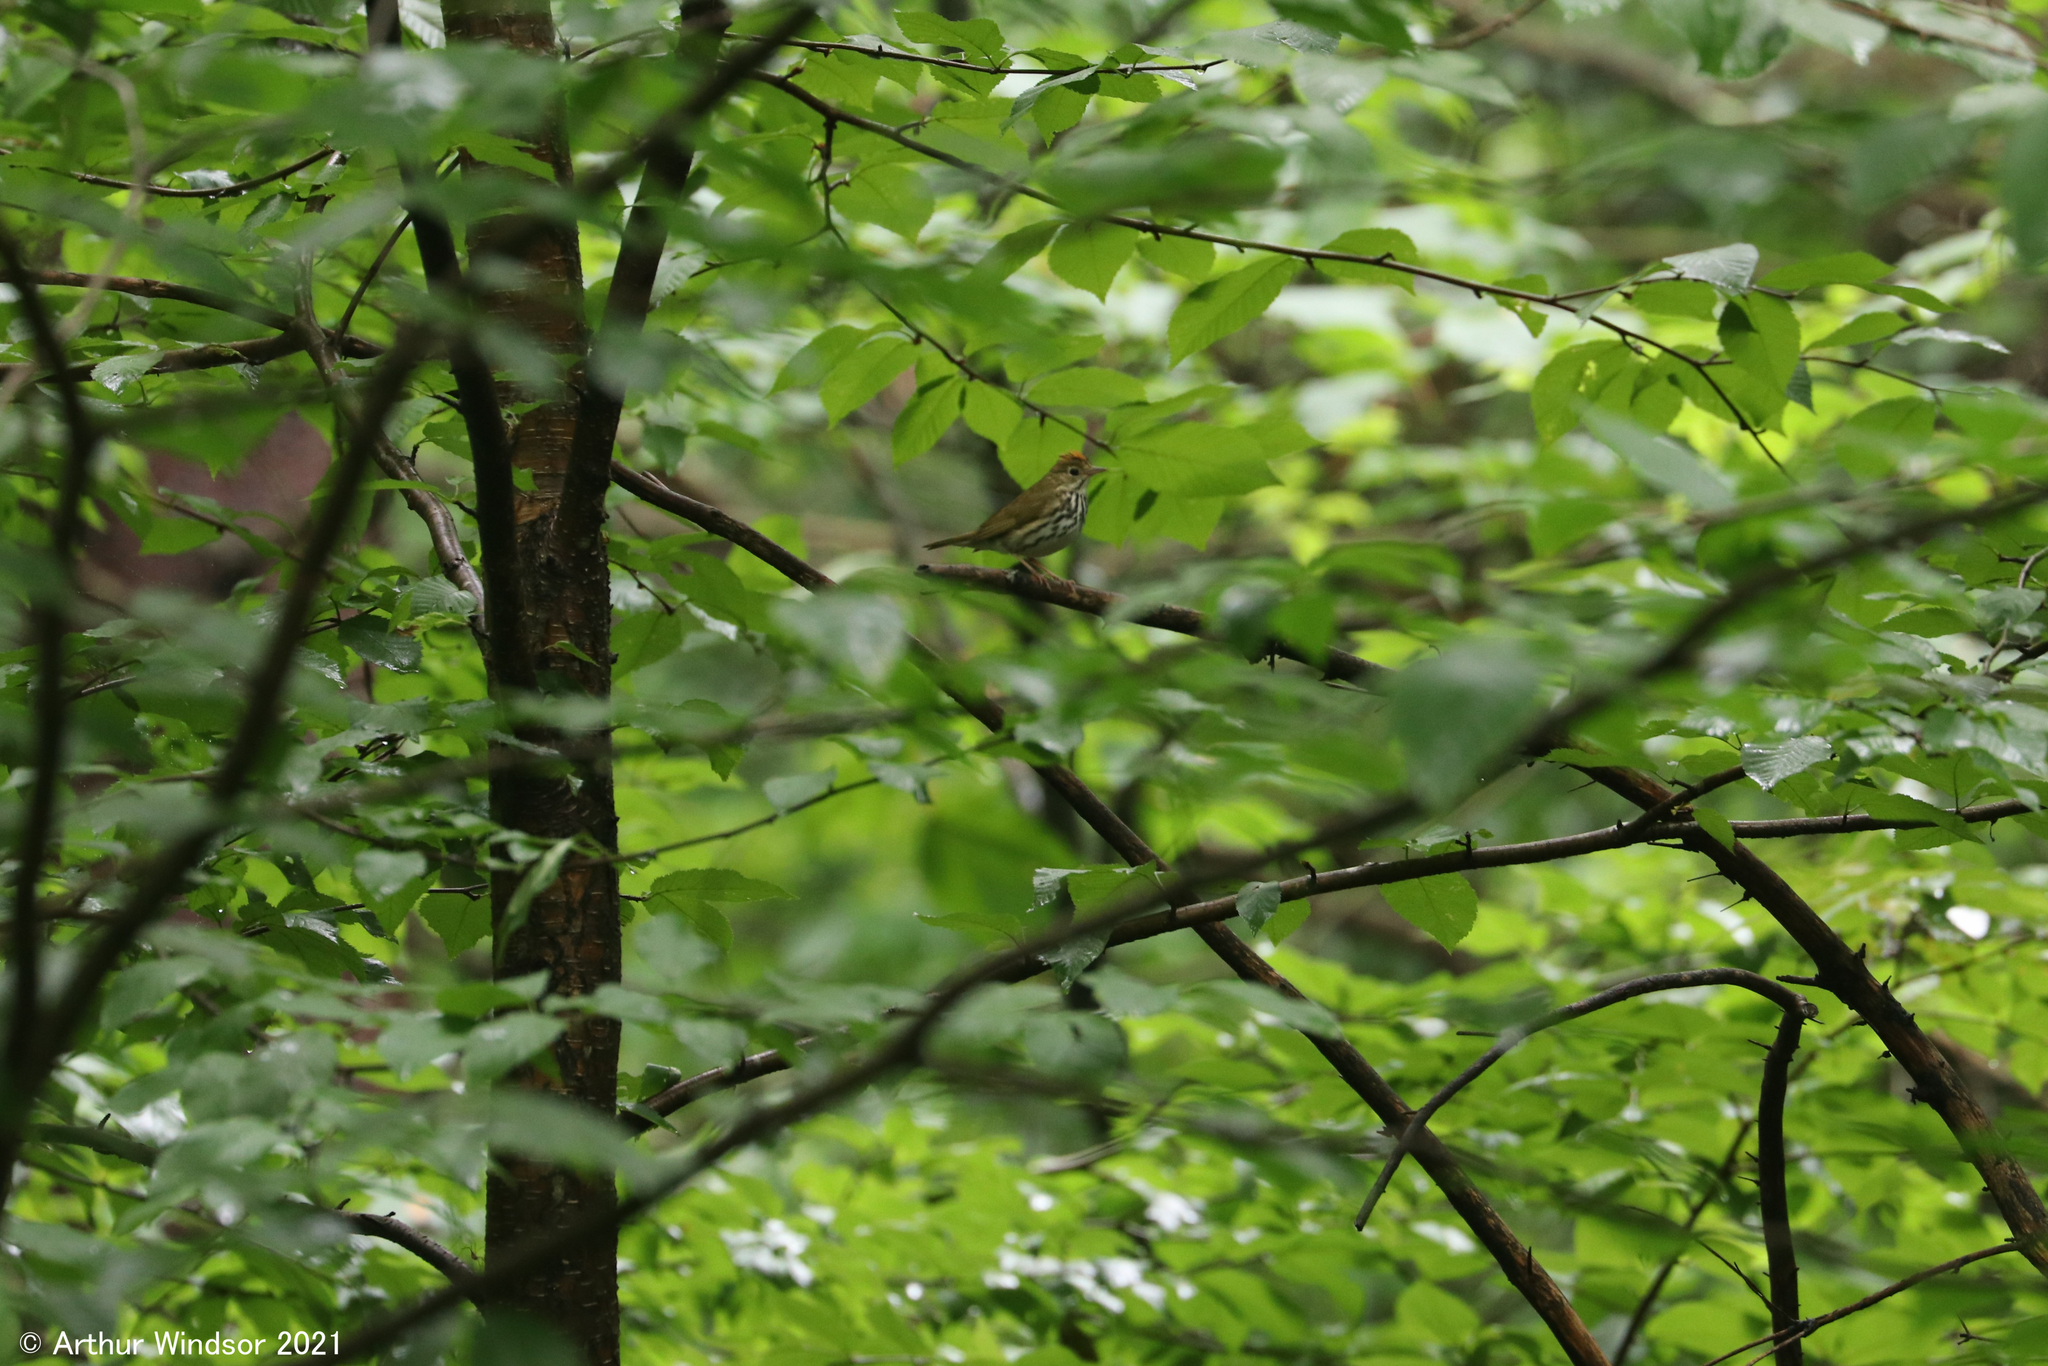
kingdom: Animalia
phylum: Chordata
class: Aves
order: Passeriformes
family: Parulidae
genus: Seiurus
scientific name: Seiurus aurocapilla
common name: Ovenbird
